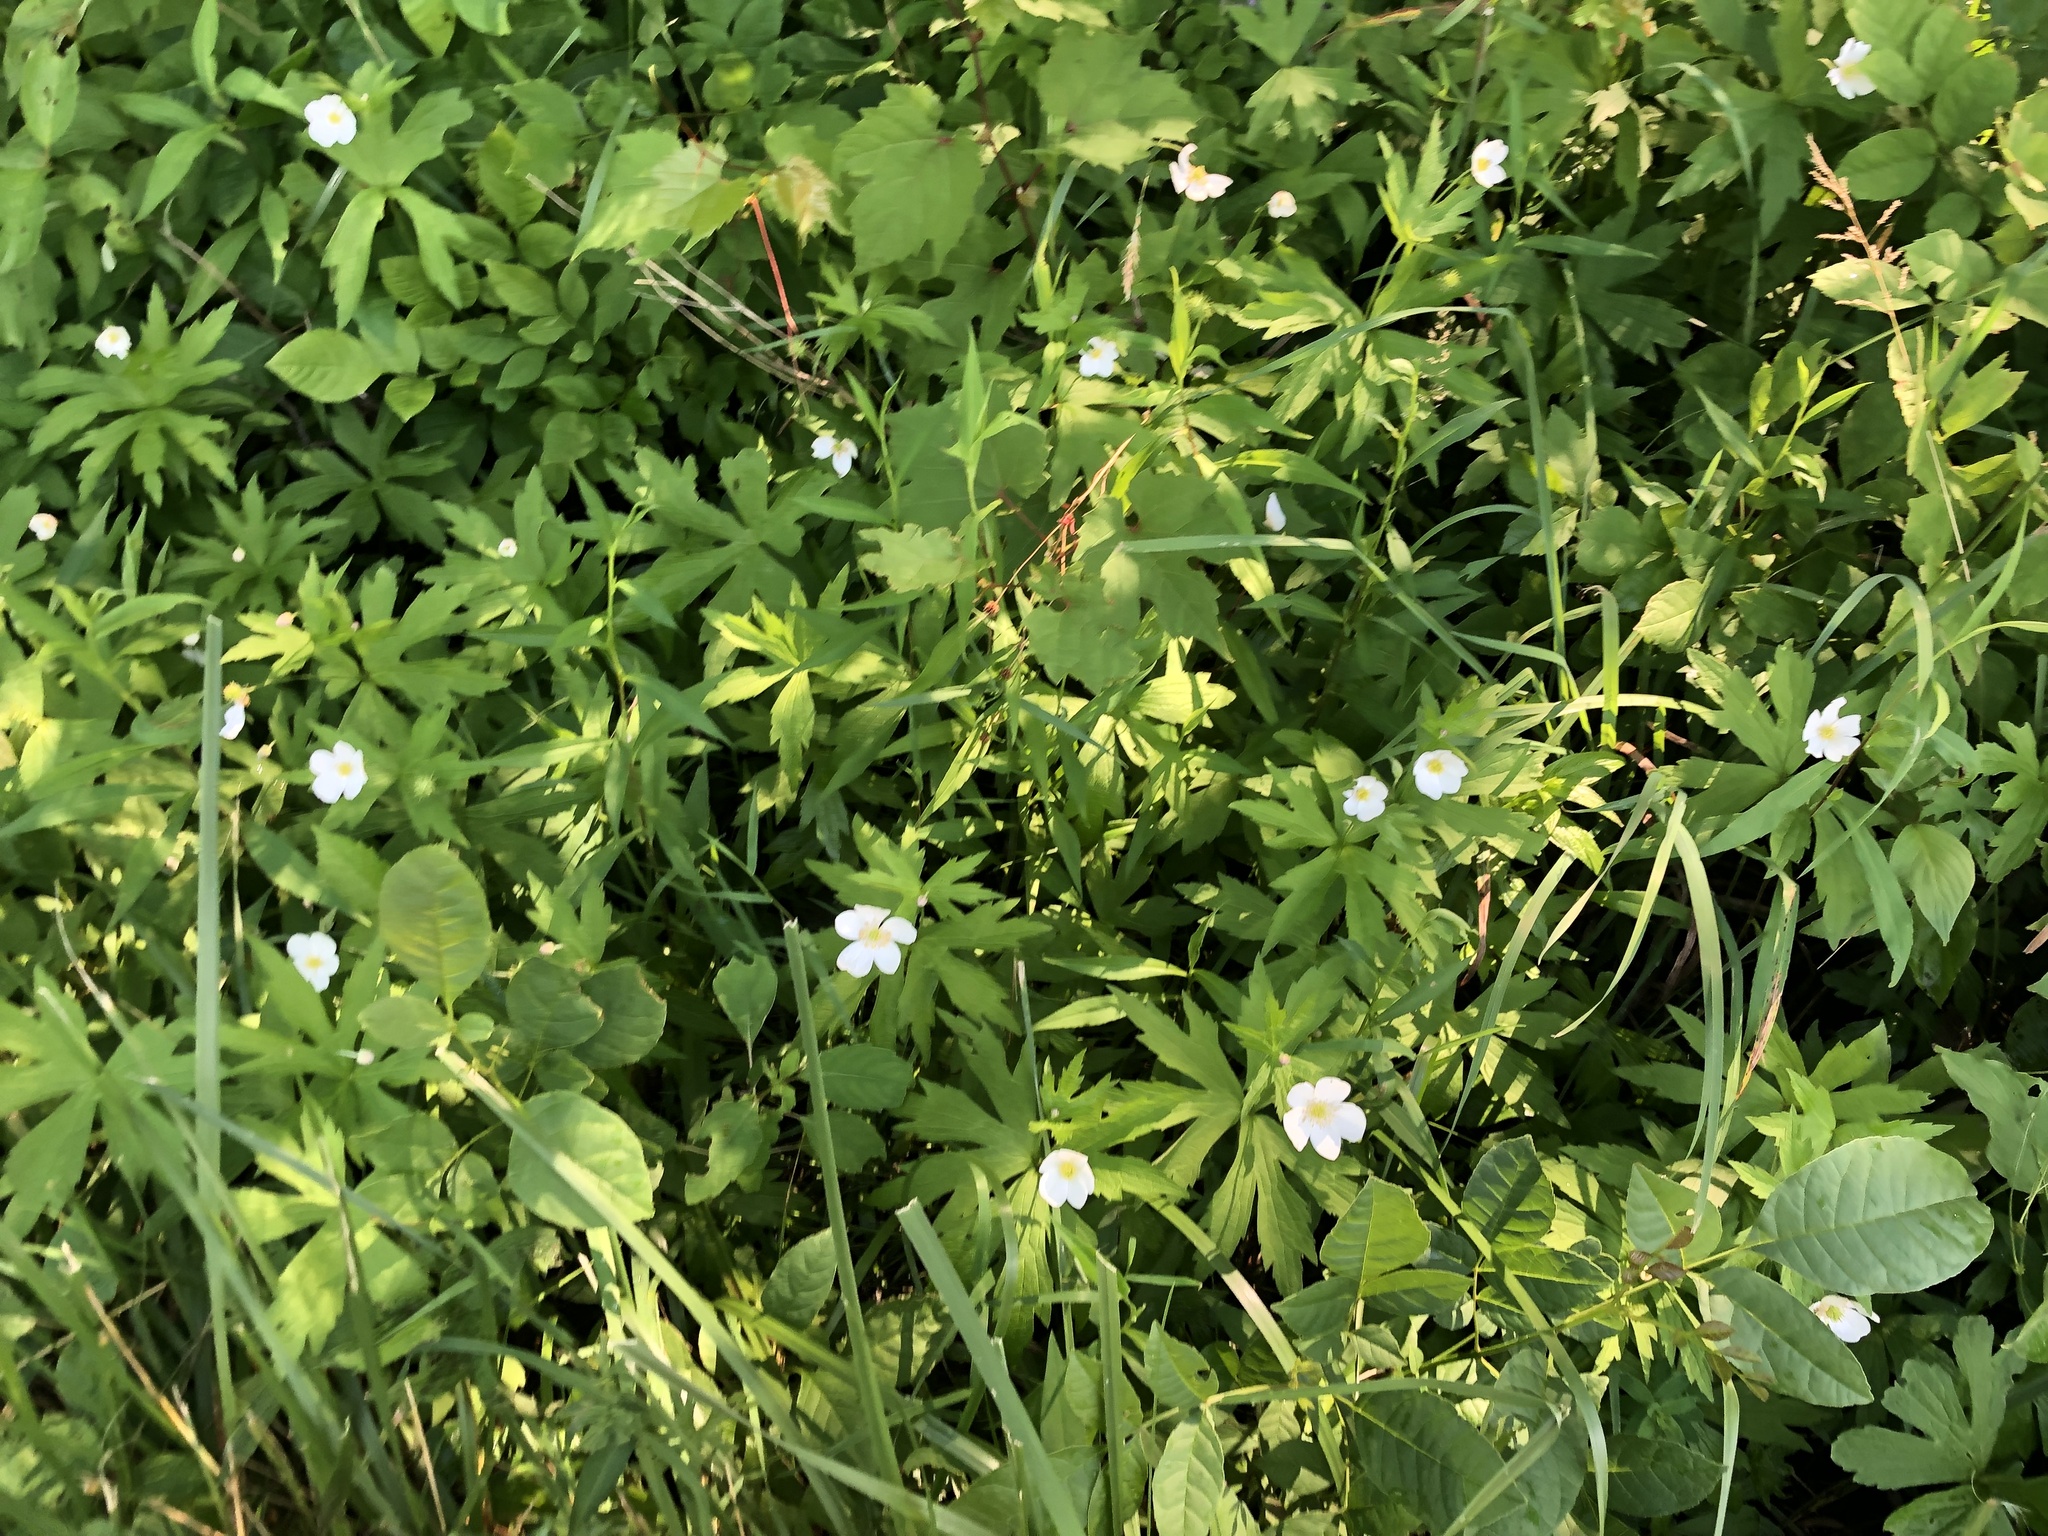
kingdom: Plantae
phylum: Tracheophyta
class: Magnoliopsida
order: Ranunculales
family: Ranunculaceae
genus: Anemonastrum
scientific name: Anemonastrum canadense
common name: Canada anemone
